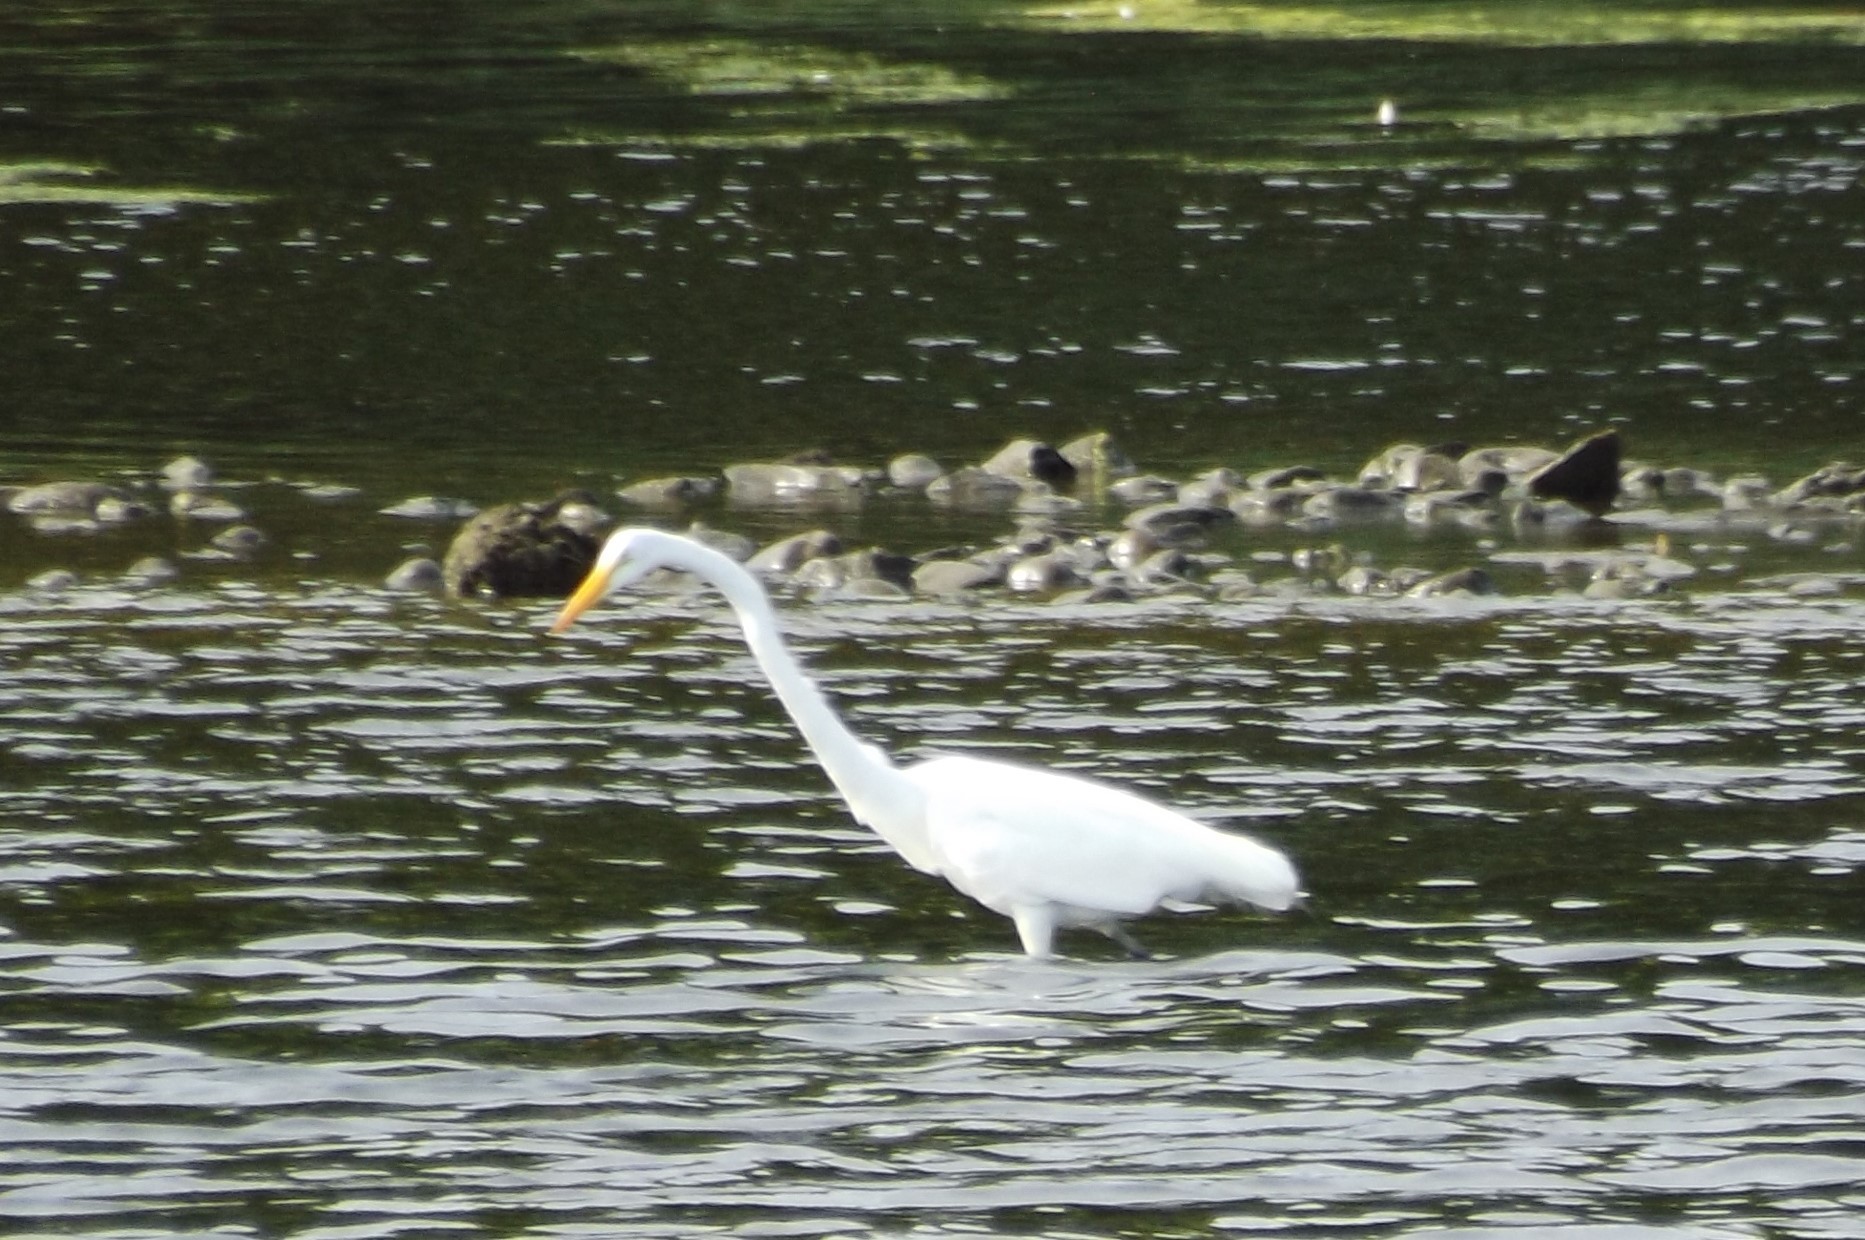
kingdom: Animalia
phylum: Chordata
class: Aves
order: Pelecaniformes
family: Ardeidae
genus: Ardea
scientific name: Ardea alba
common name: Great egret
